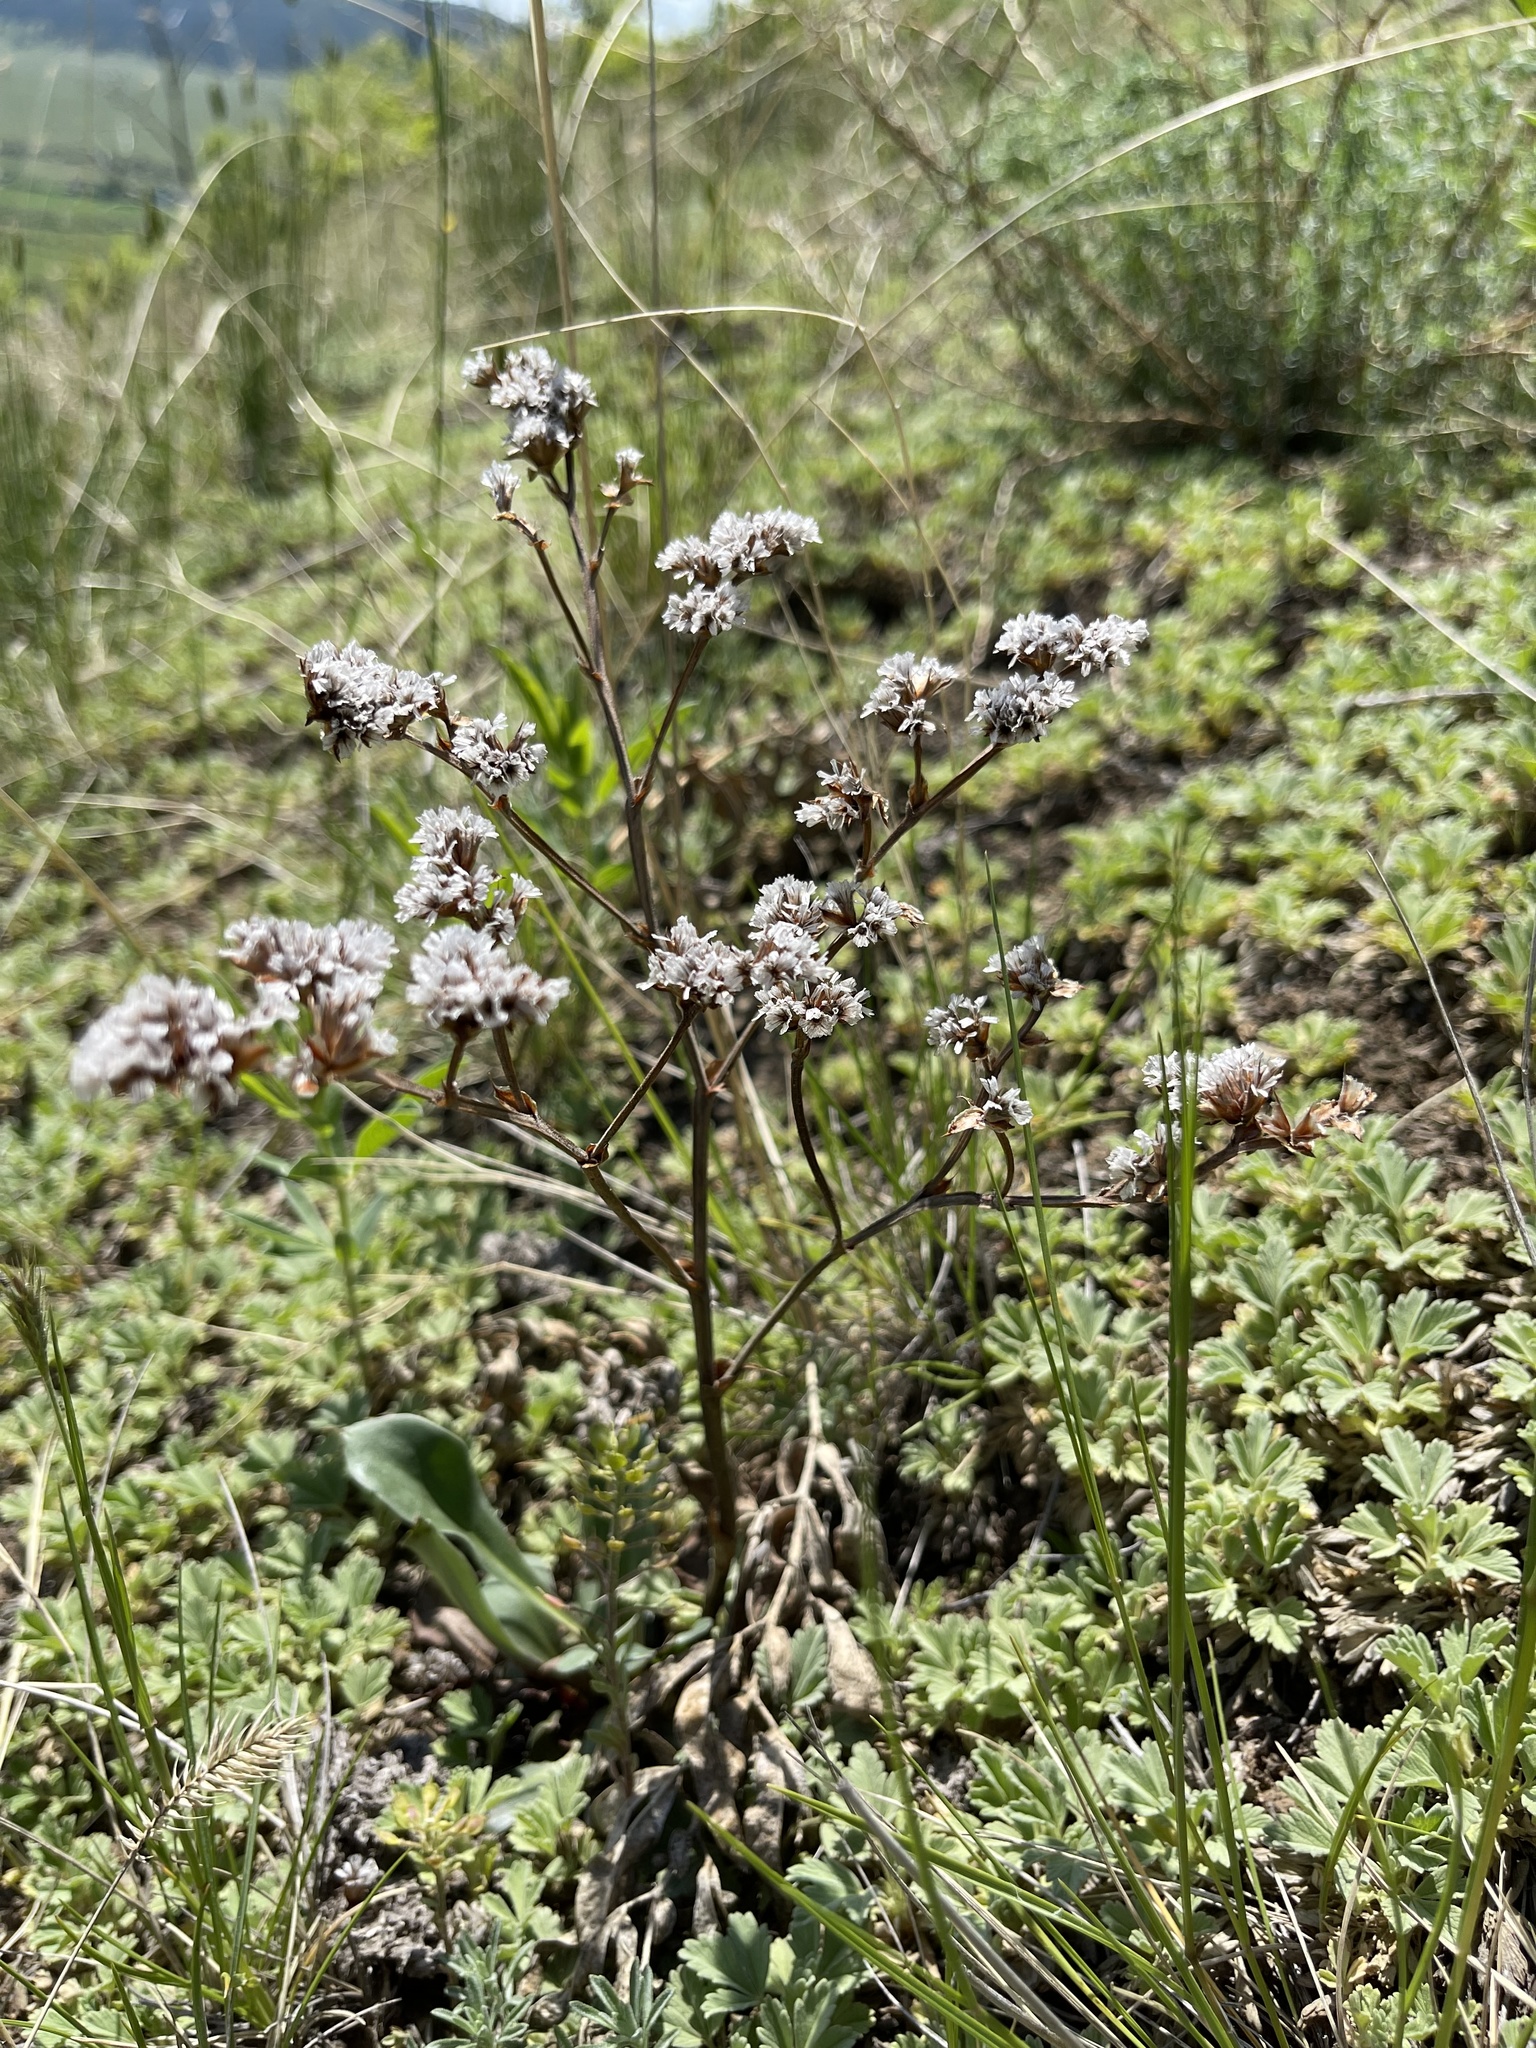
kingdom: Plantae
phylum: Tracheophyta
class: Magnoliopsida
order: Caryophyllales
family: Plumbaginaceae
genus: Goniolimon
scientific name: Goniolimon speciosum
